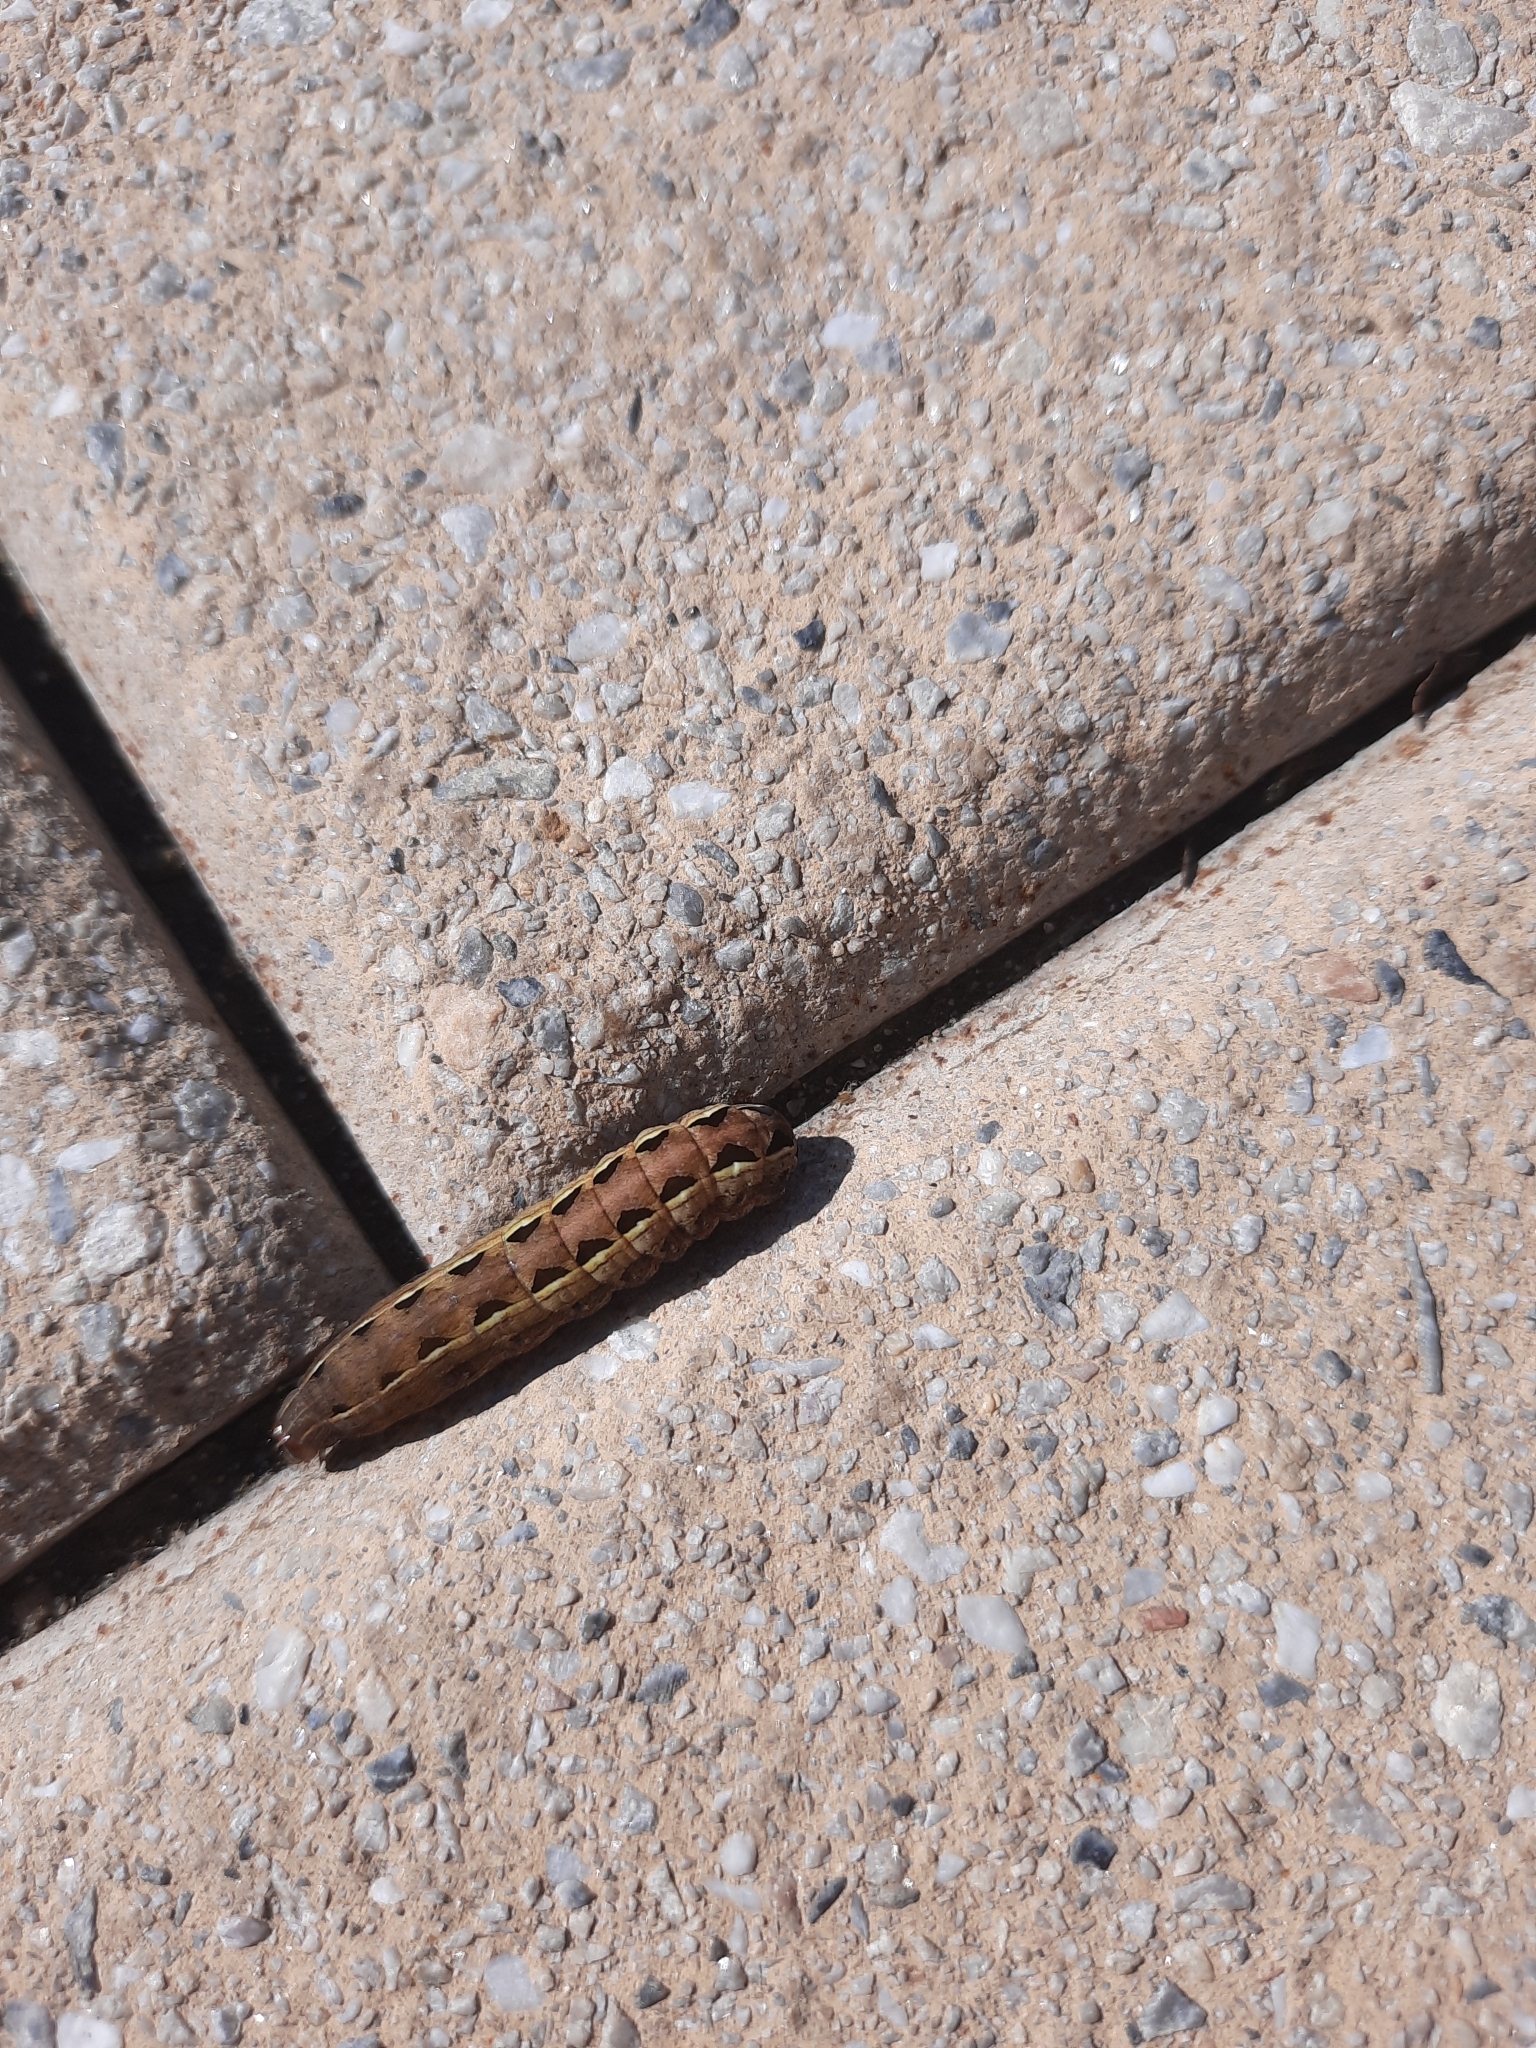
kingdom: Animalia
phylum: Arthropoda
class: Insecta
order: Lepidoptera
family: Noctuidae
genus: Spodoptera
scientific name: Spodoptera ornithogalli
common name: Yellow-striped armyworm
